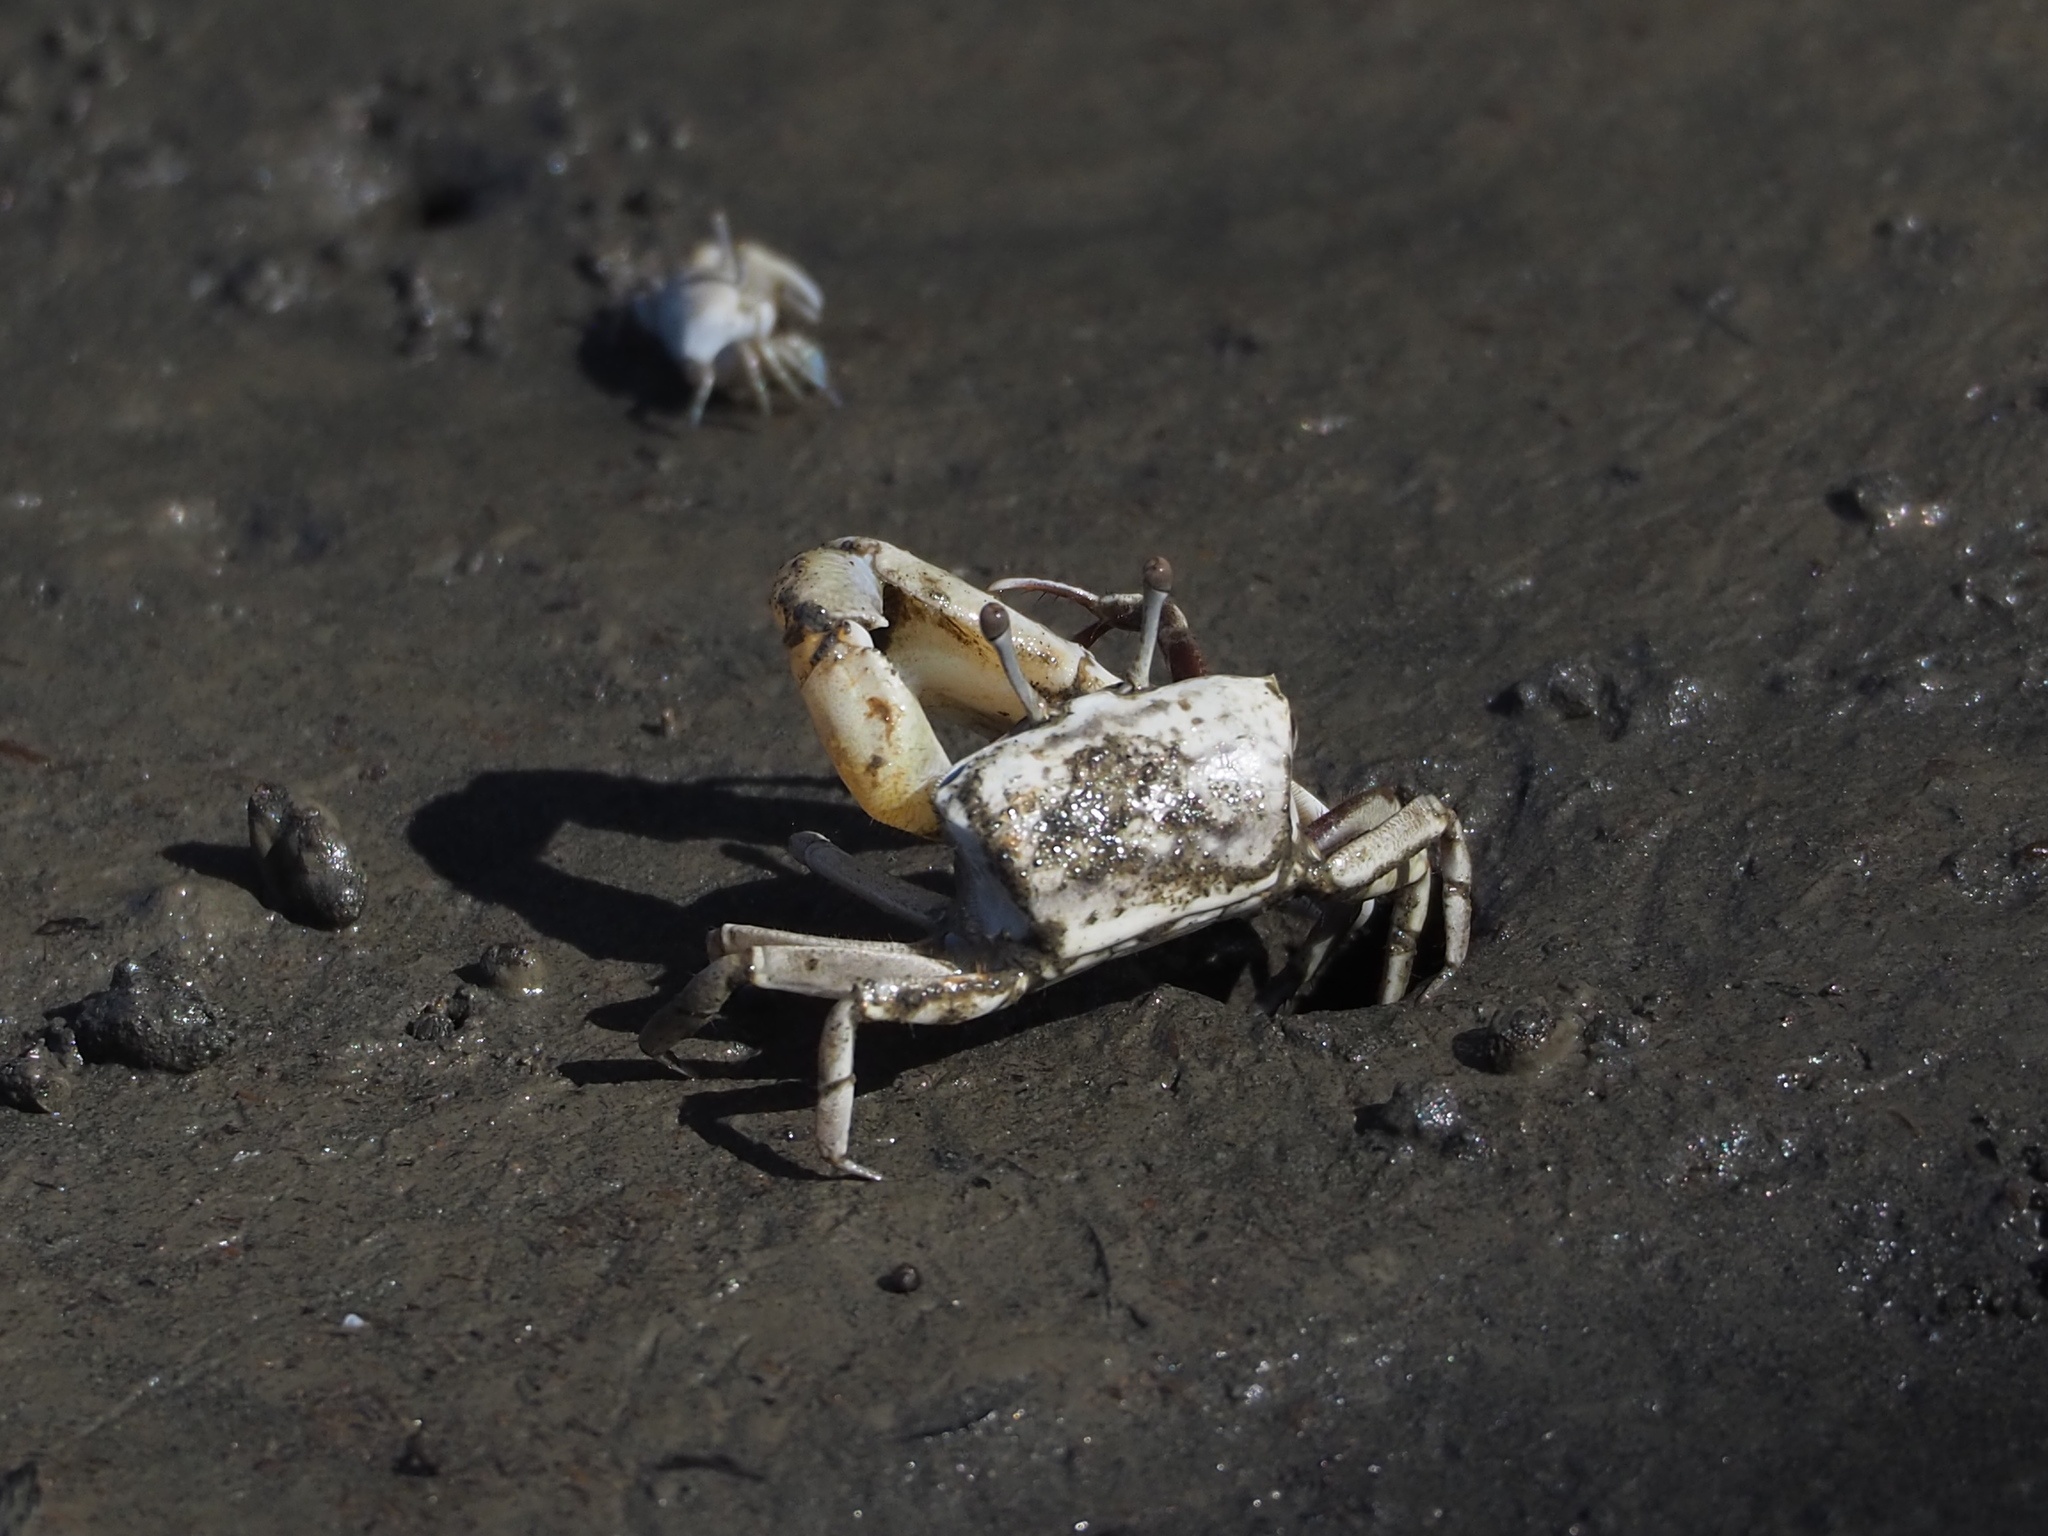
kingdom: Animalia
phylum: Arthropoda
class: Malacostraca
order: Decapoda
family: Ocypodidae
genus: Austruca
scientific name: Austruca lactea
